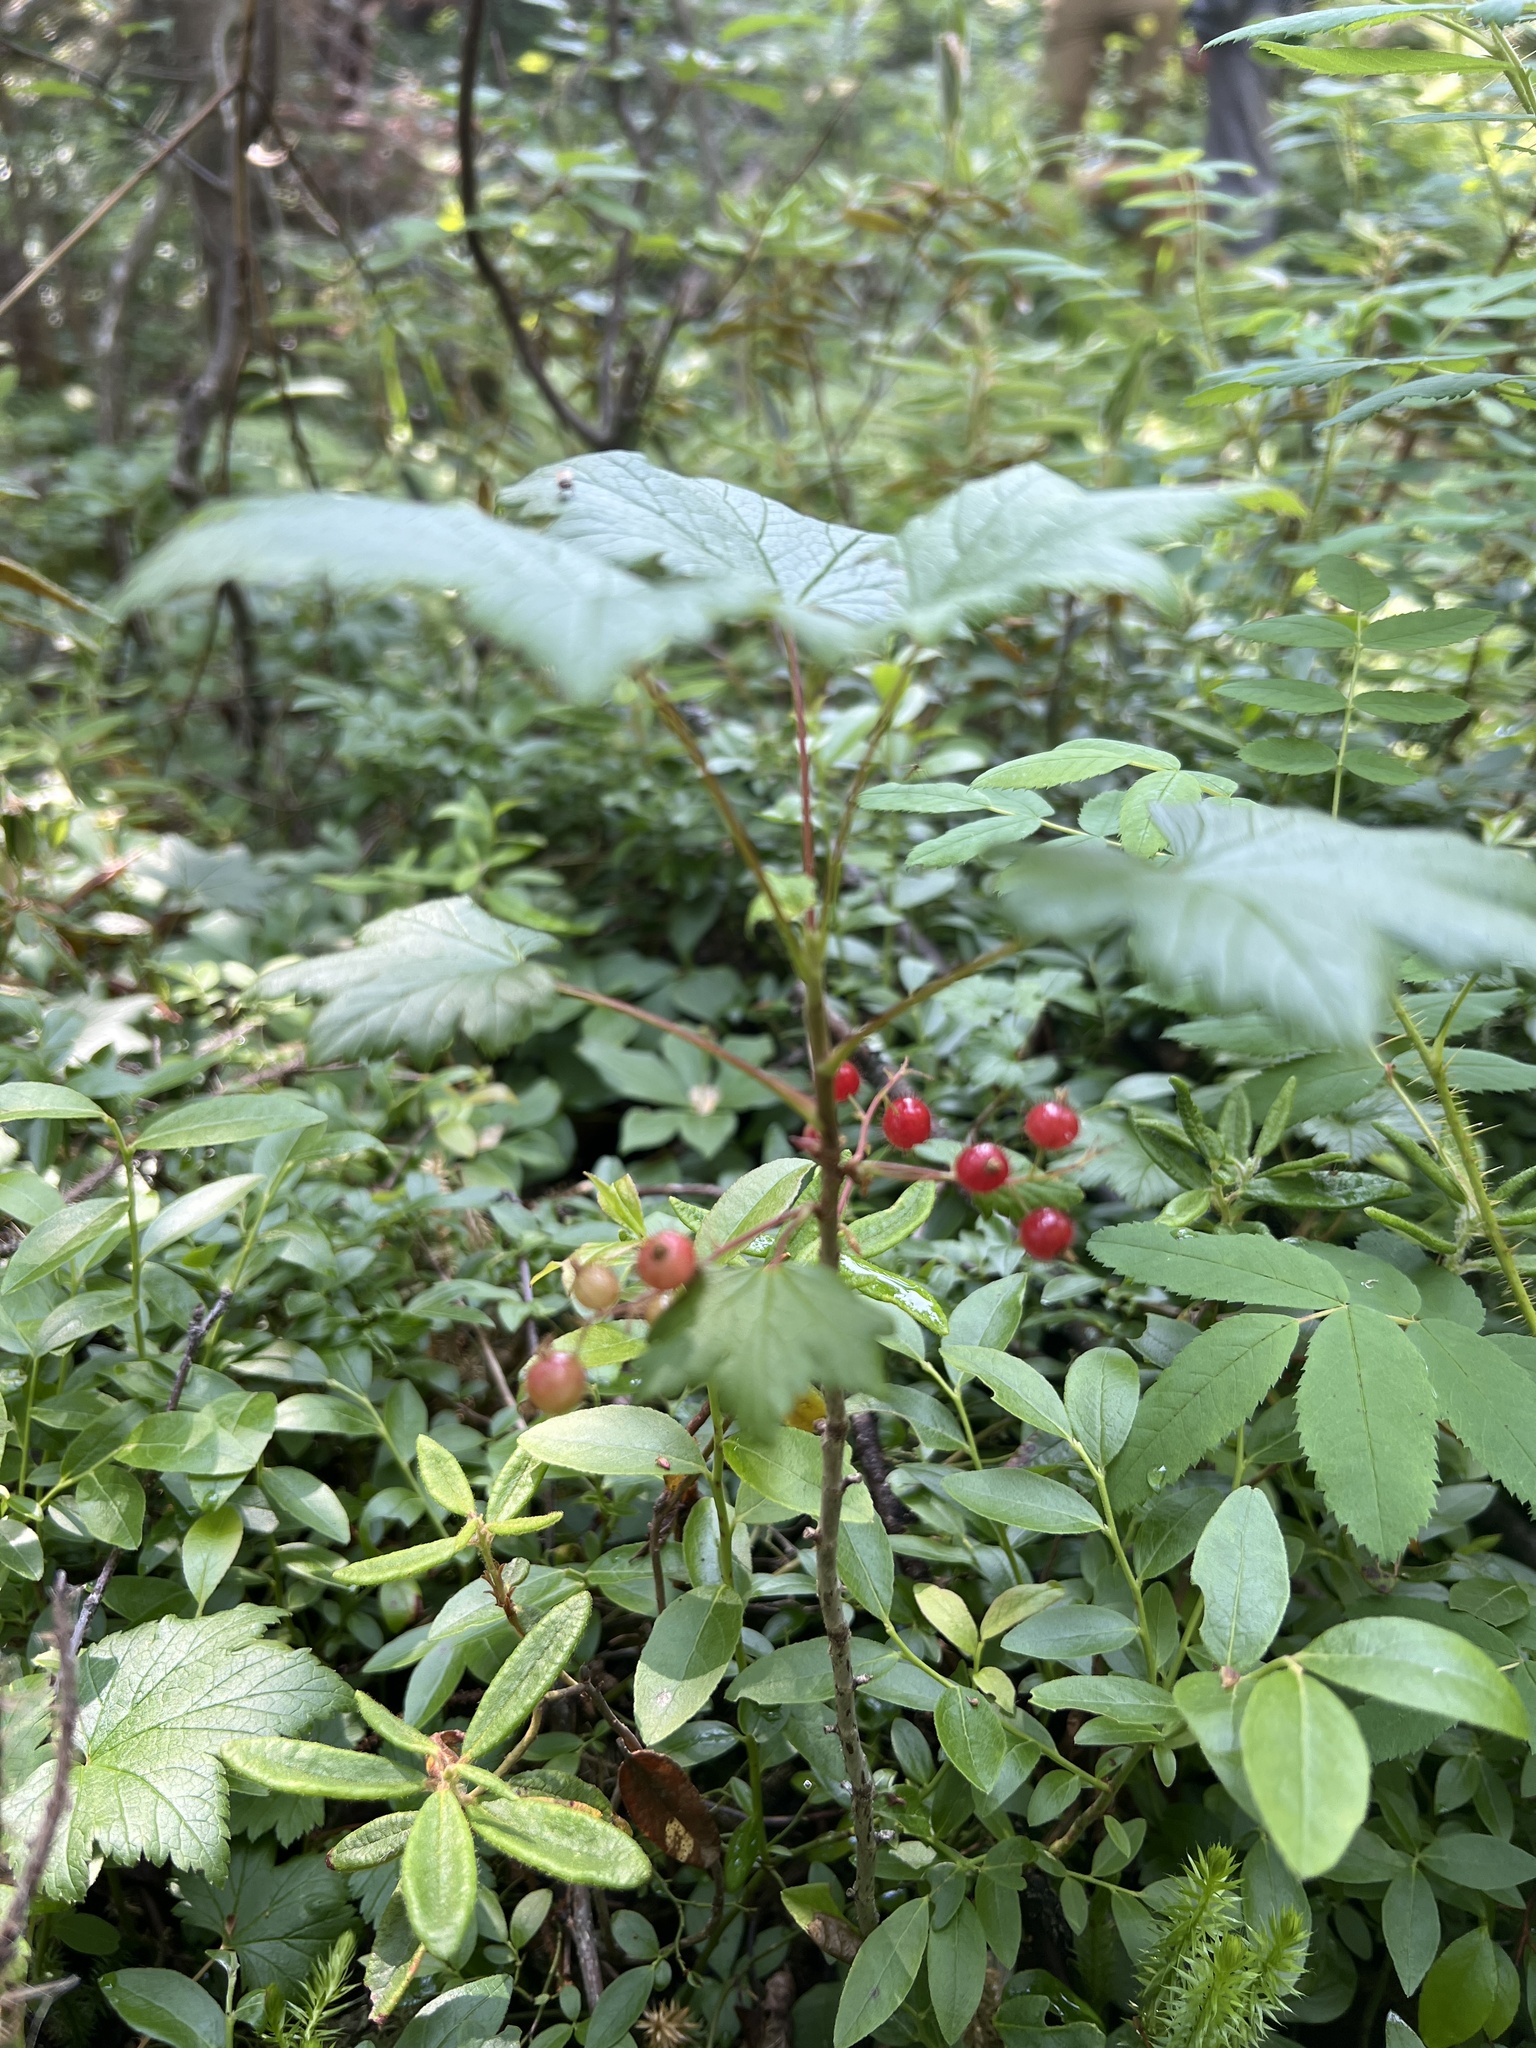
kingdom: Plantae
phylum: Tracheophyta
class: Magnoliopsida
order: Saxifragales
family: Grossulariaceae
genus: Ribes
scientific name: Ribes glandulosum
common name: Skunk currant
